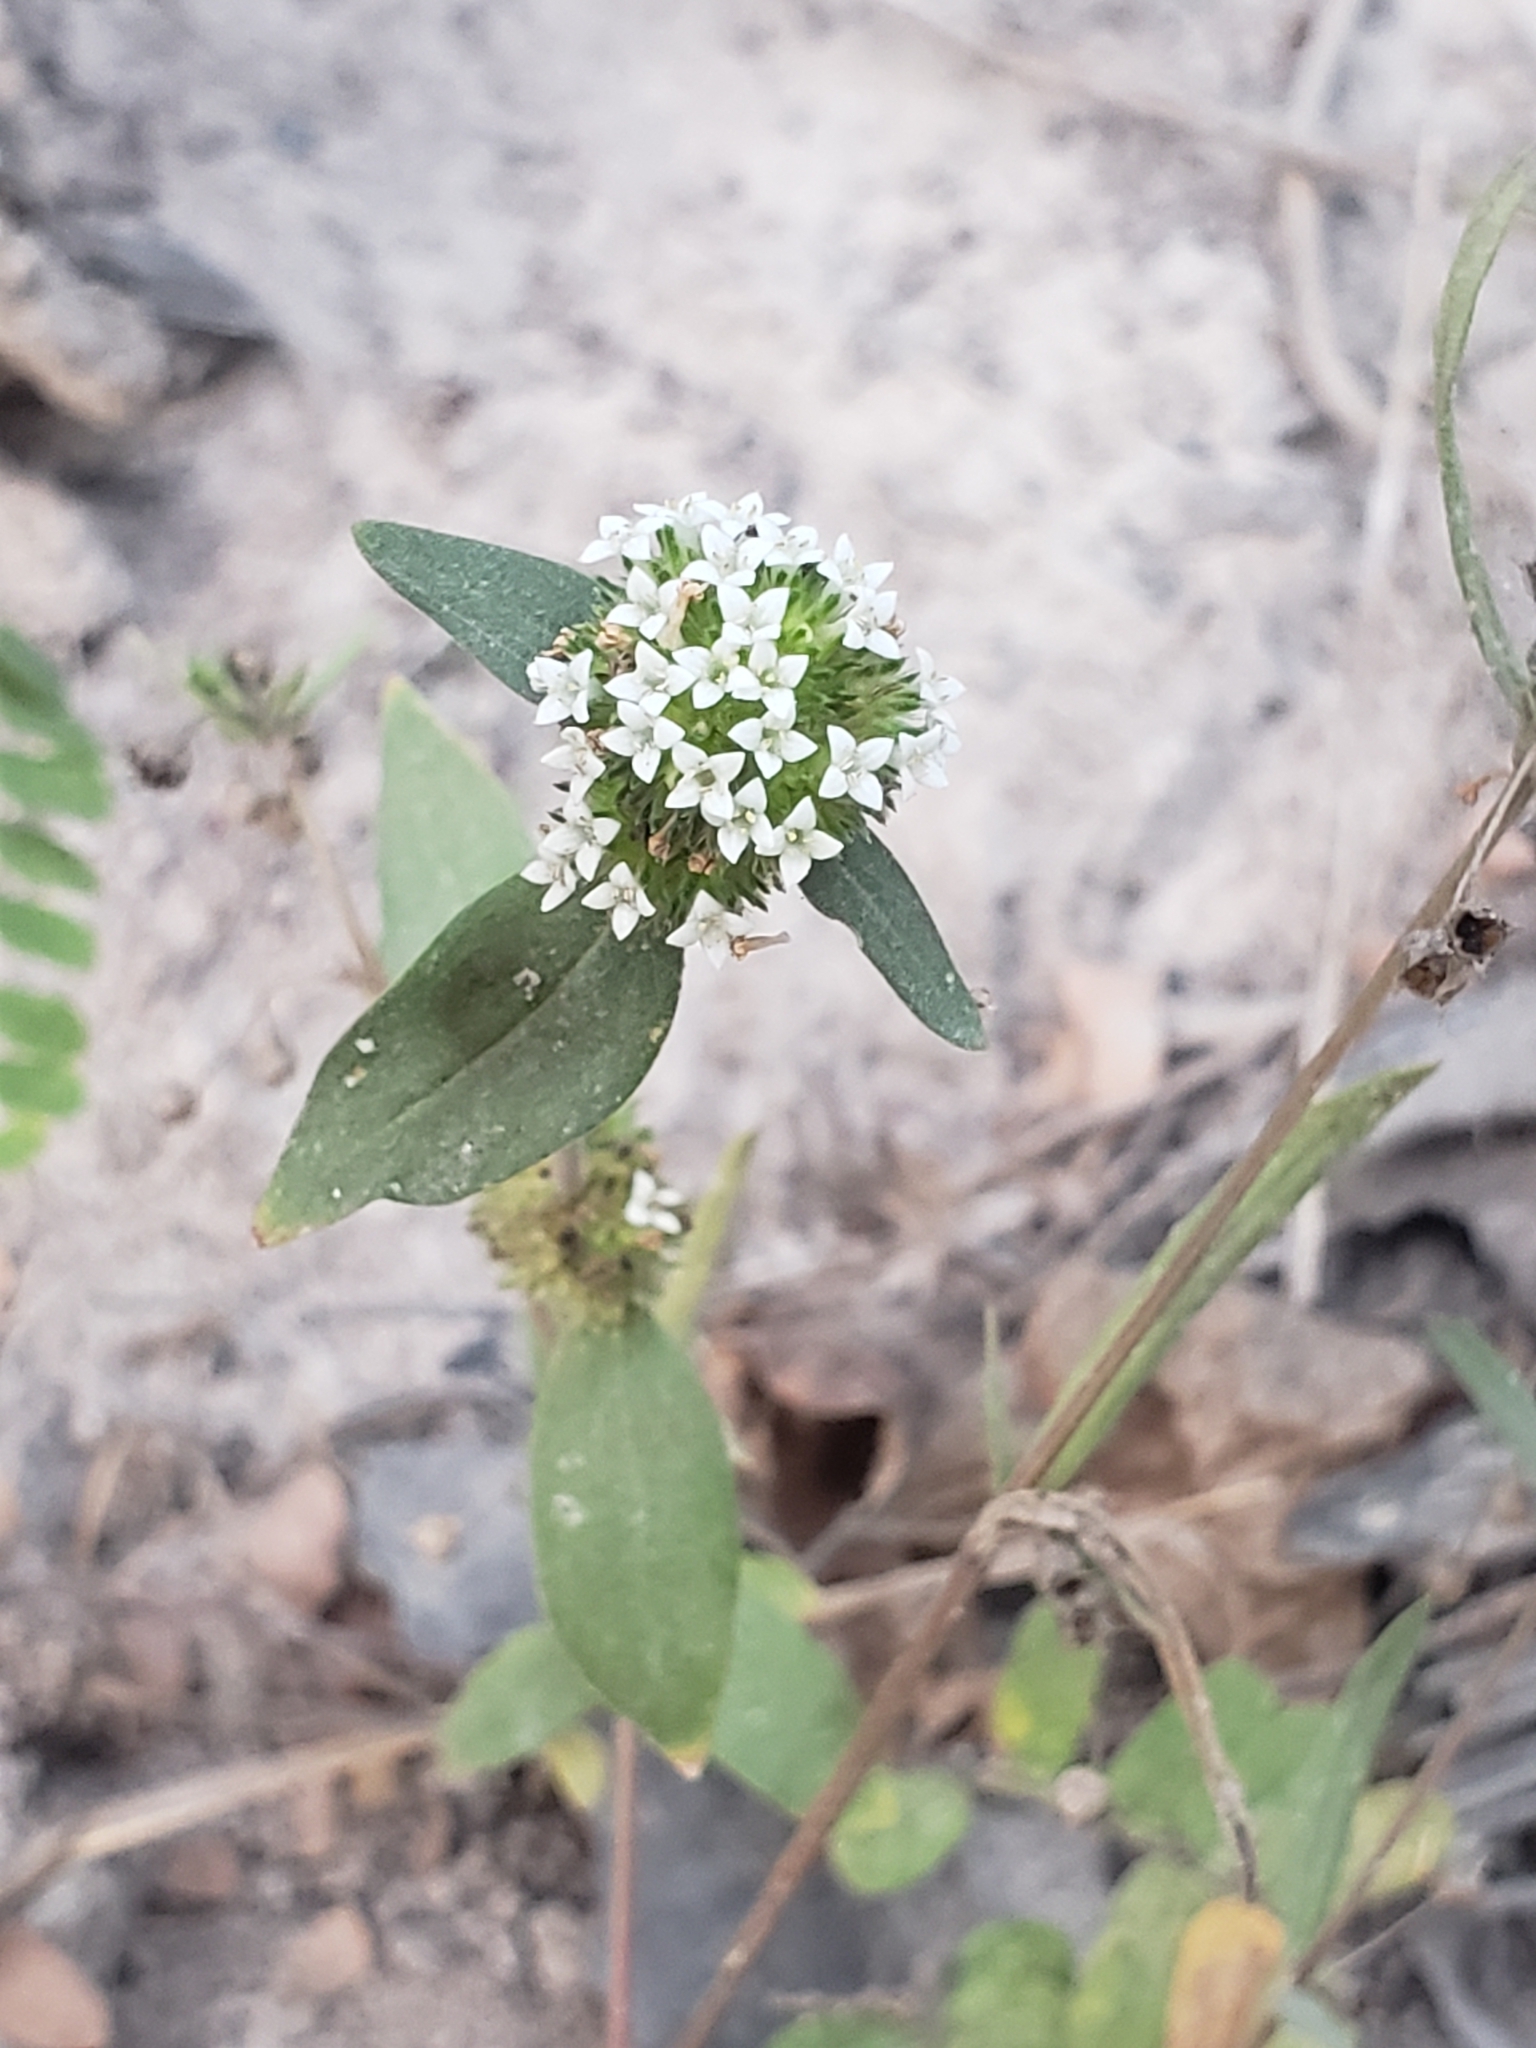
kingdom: Plantae
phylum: Tracheophyta
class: Magnoliopsida
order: Gentianales
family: Rubiaceae
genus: Mitracarpus
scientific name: Mitracarpus hirtus
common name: Tropical girdlepod
